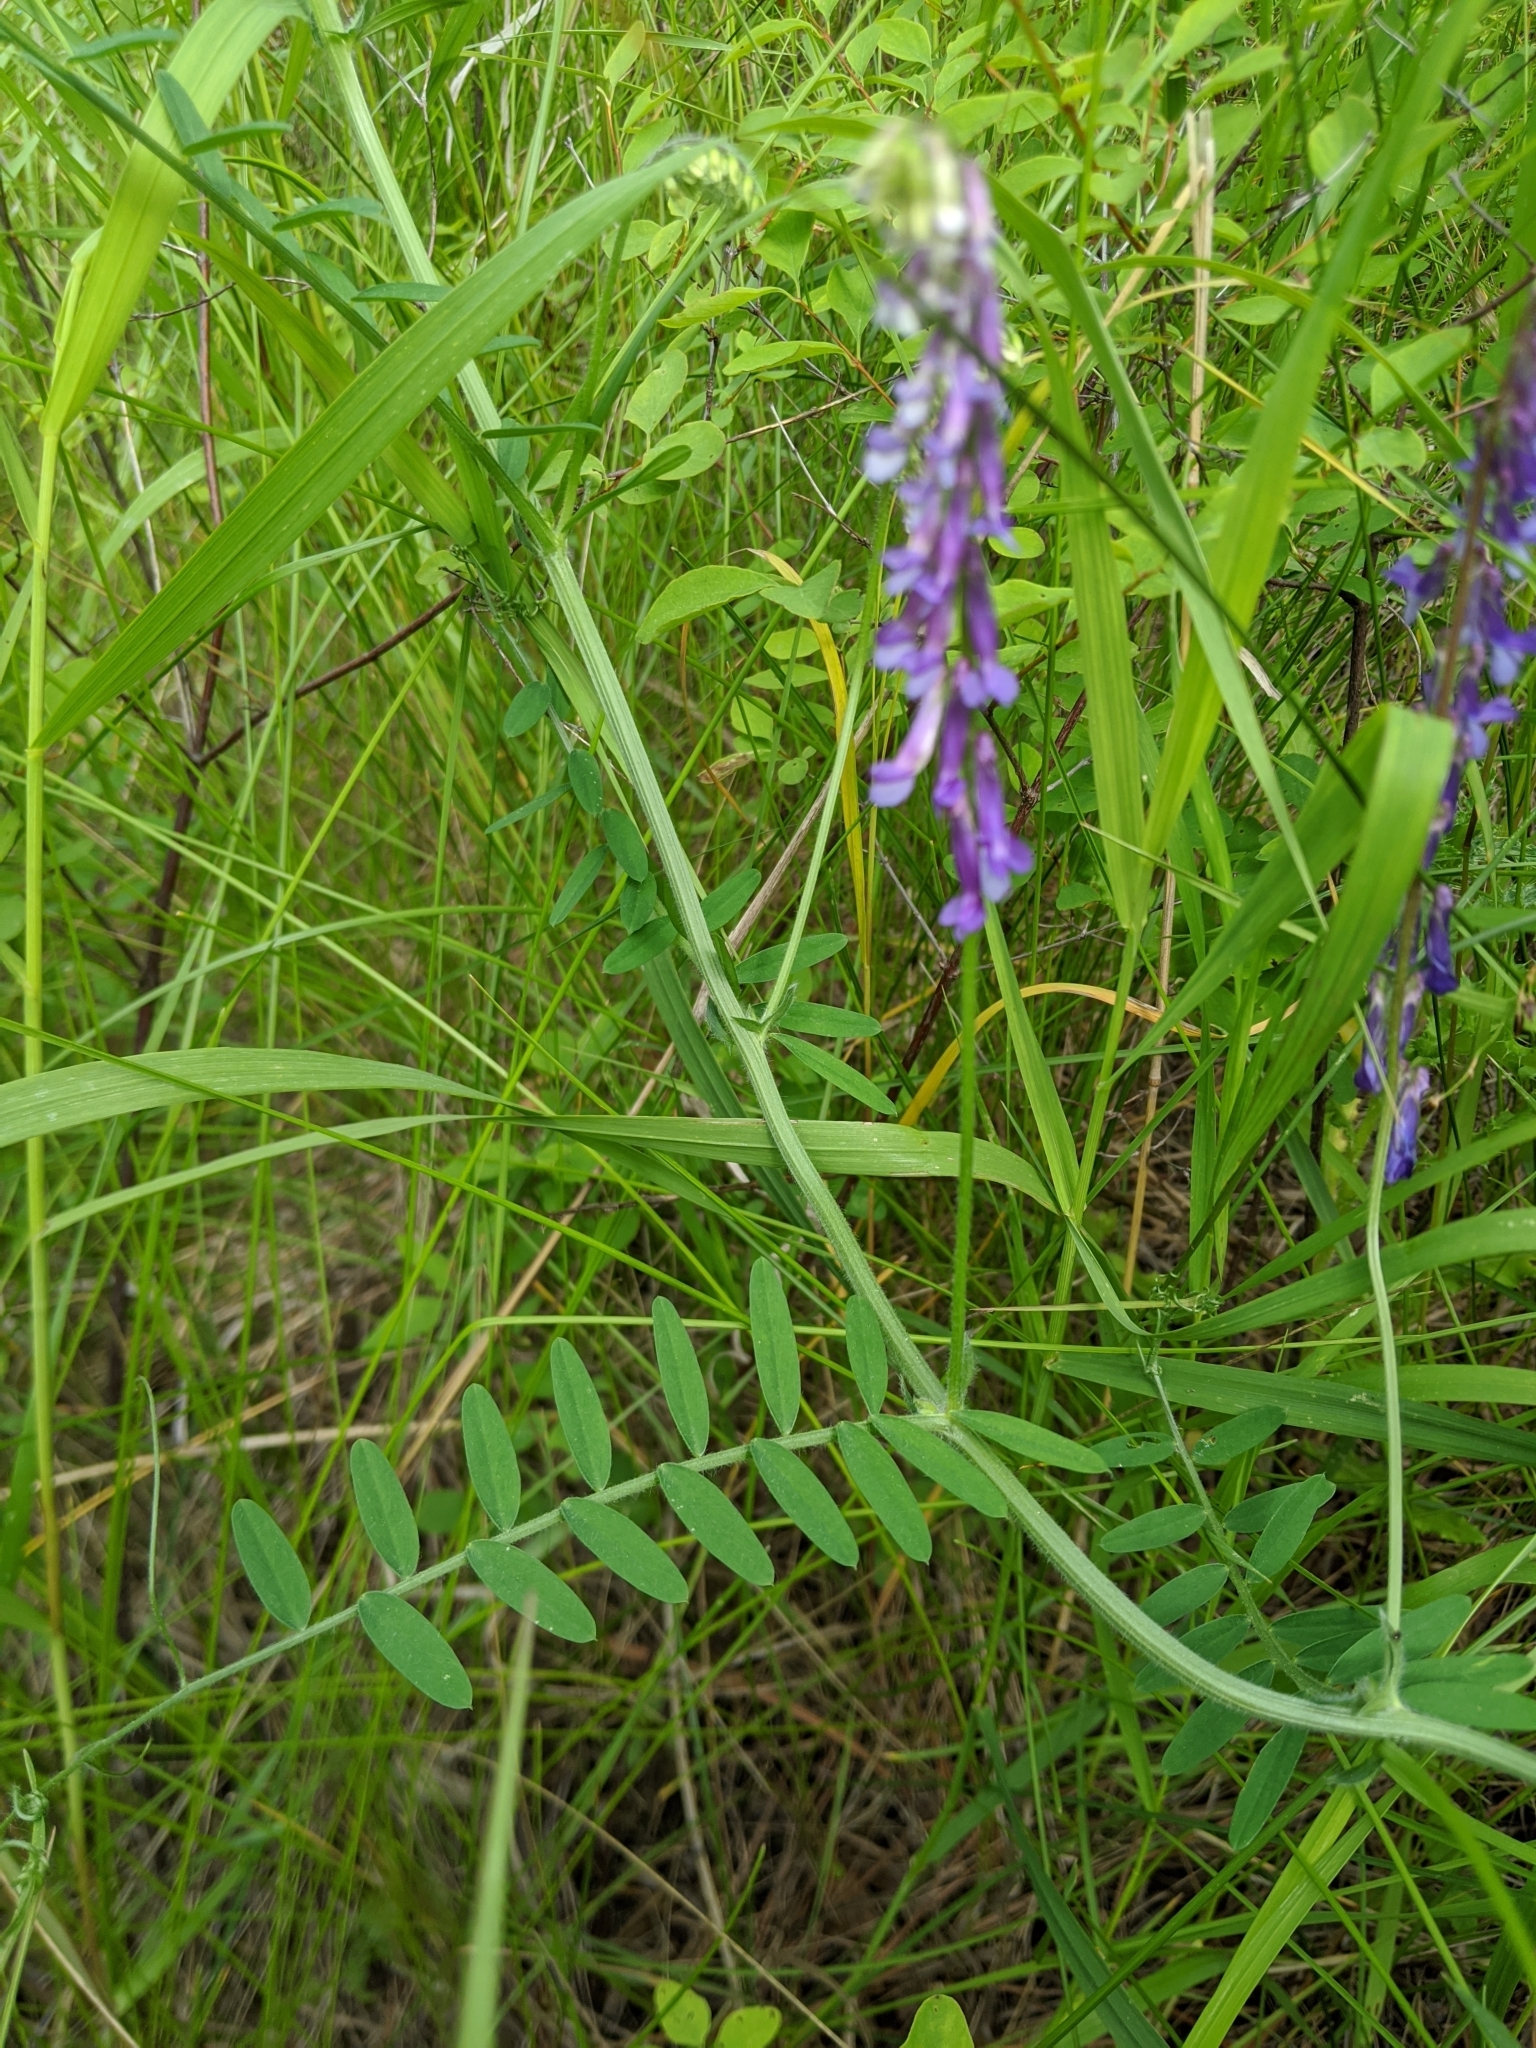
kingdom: Plantae
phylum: Tracheophyta
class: Magnoliopsida
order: Fabales
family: Fabaceae
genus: Vicia
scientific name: Vicia cracca
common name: Bird vetch
